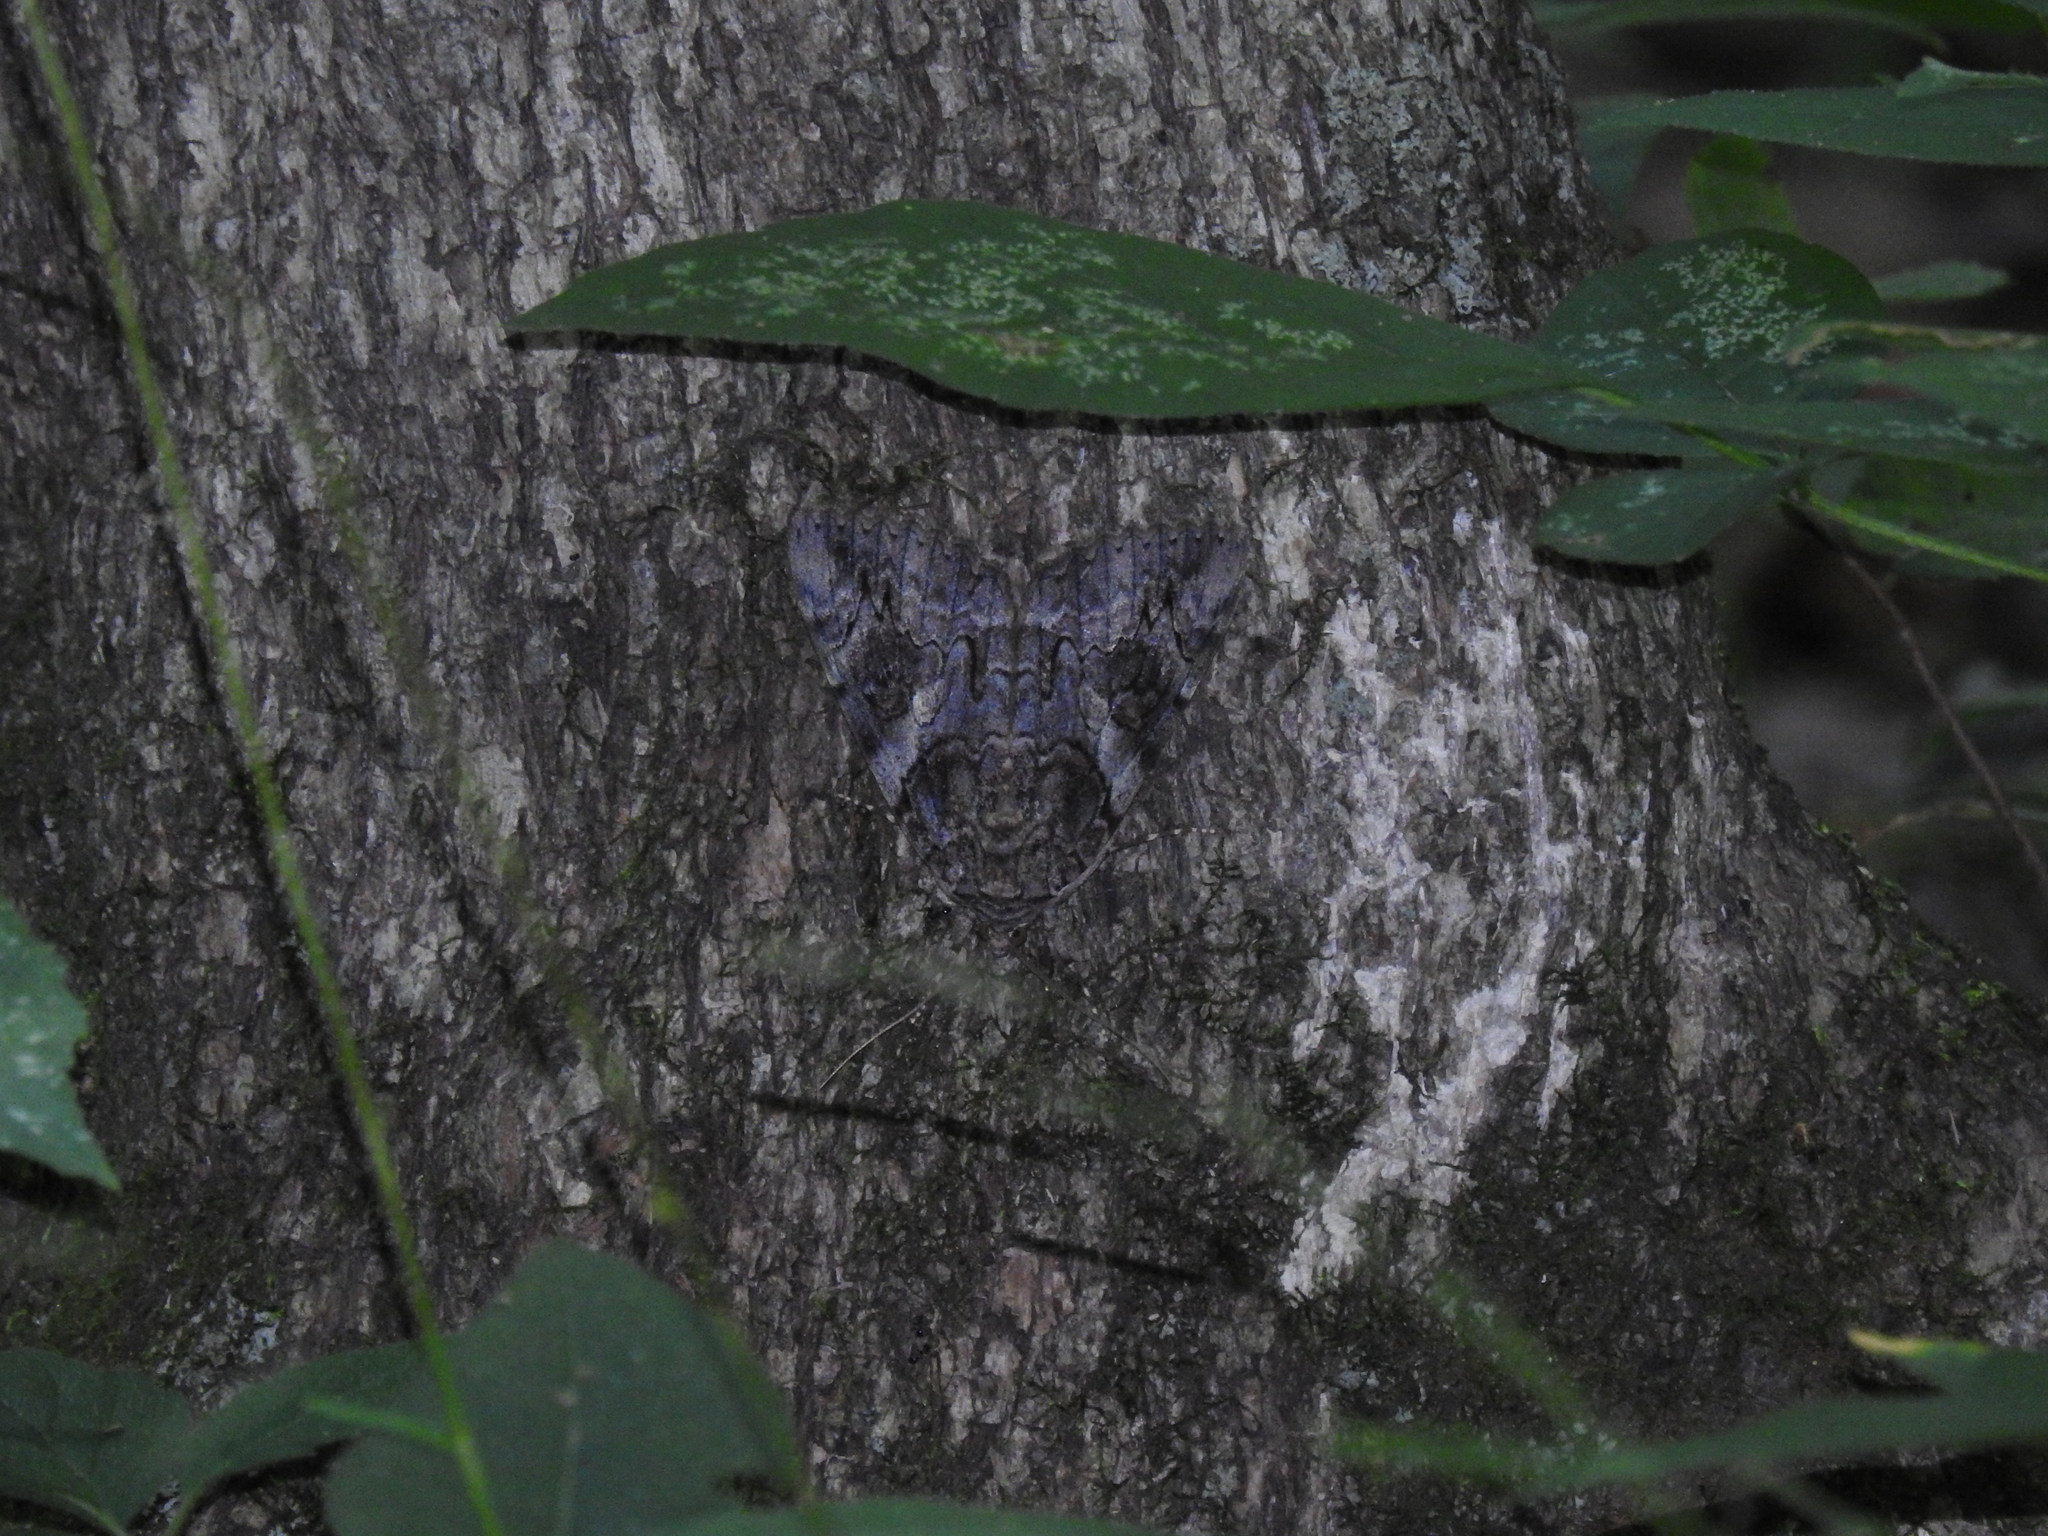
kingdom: Animalia
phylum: Arthropoda
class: Insecta
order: Lepidoptera
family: Erebidae
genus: Catocala
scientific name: Catocala piatrix
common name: The penitent underwing
